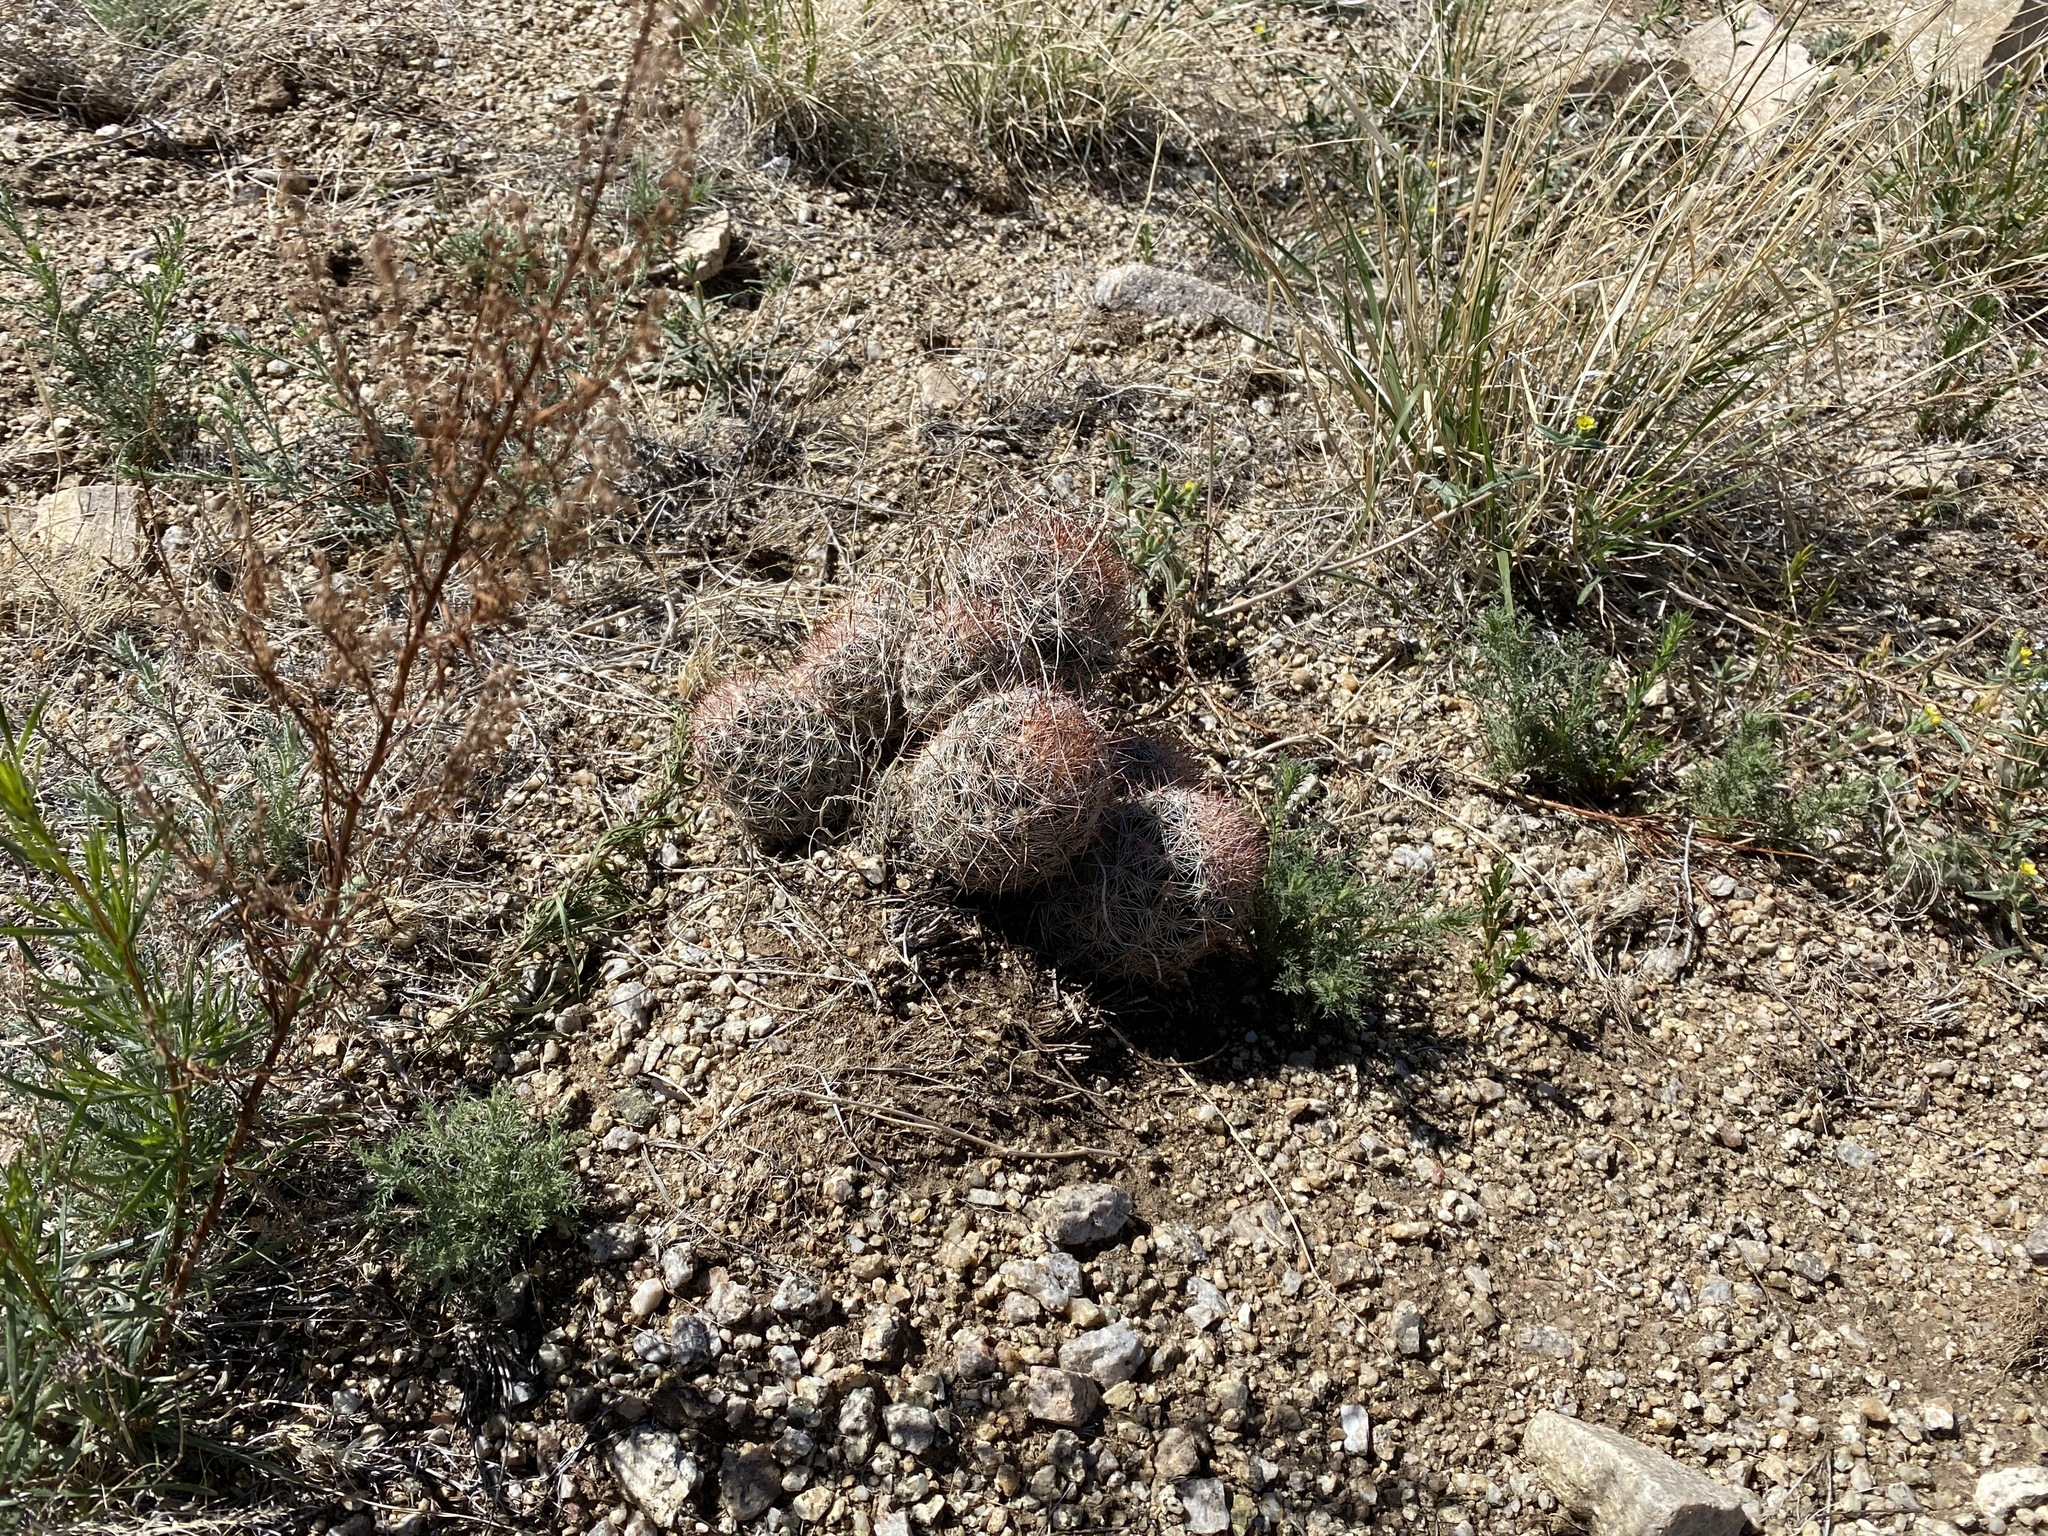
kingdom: Plantae
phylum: Tracheophyta
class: Magnoliopsida
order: Caryophyllales
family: Cactaceae
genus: Pelecyphora
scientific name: Pelecyphora vivipara
